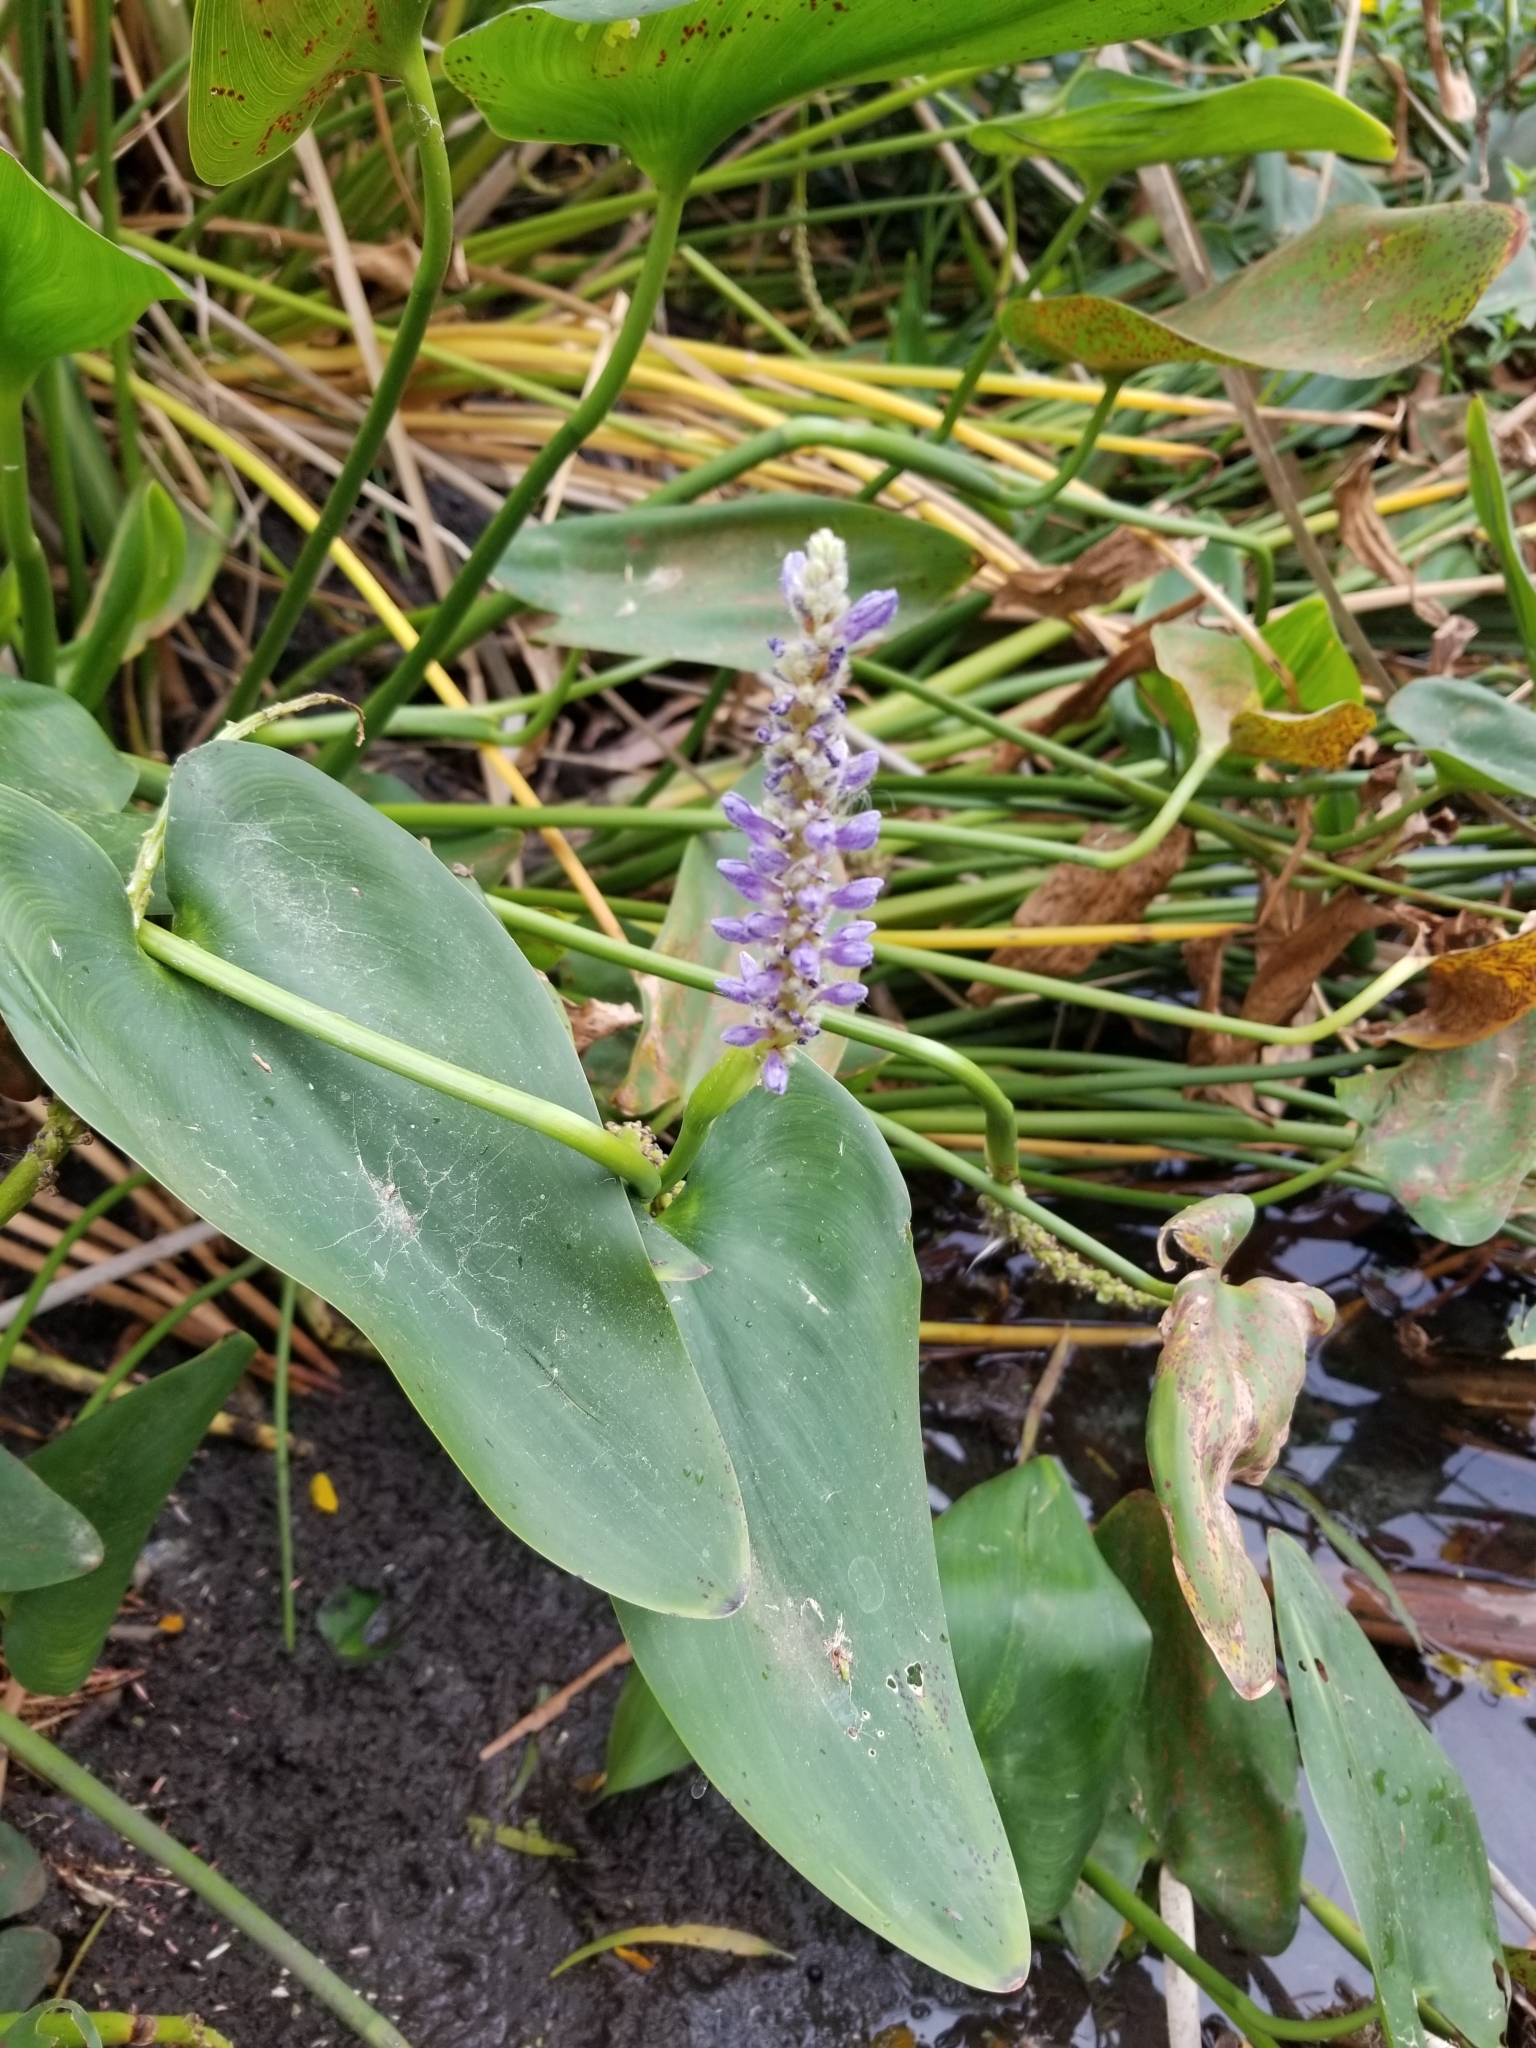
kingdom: Plantae
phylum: Tracheophyta
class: Liliopsida
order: Commelinales
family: Pontederiaceae
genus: Pontederia
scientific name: Pontederia cordata
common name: Pickerelweed
